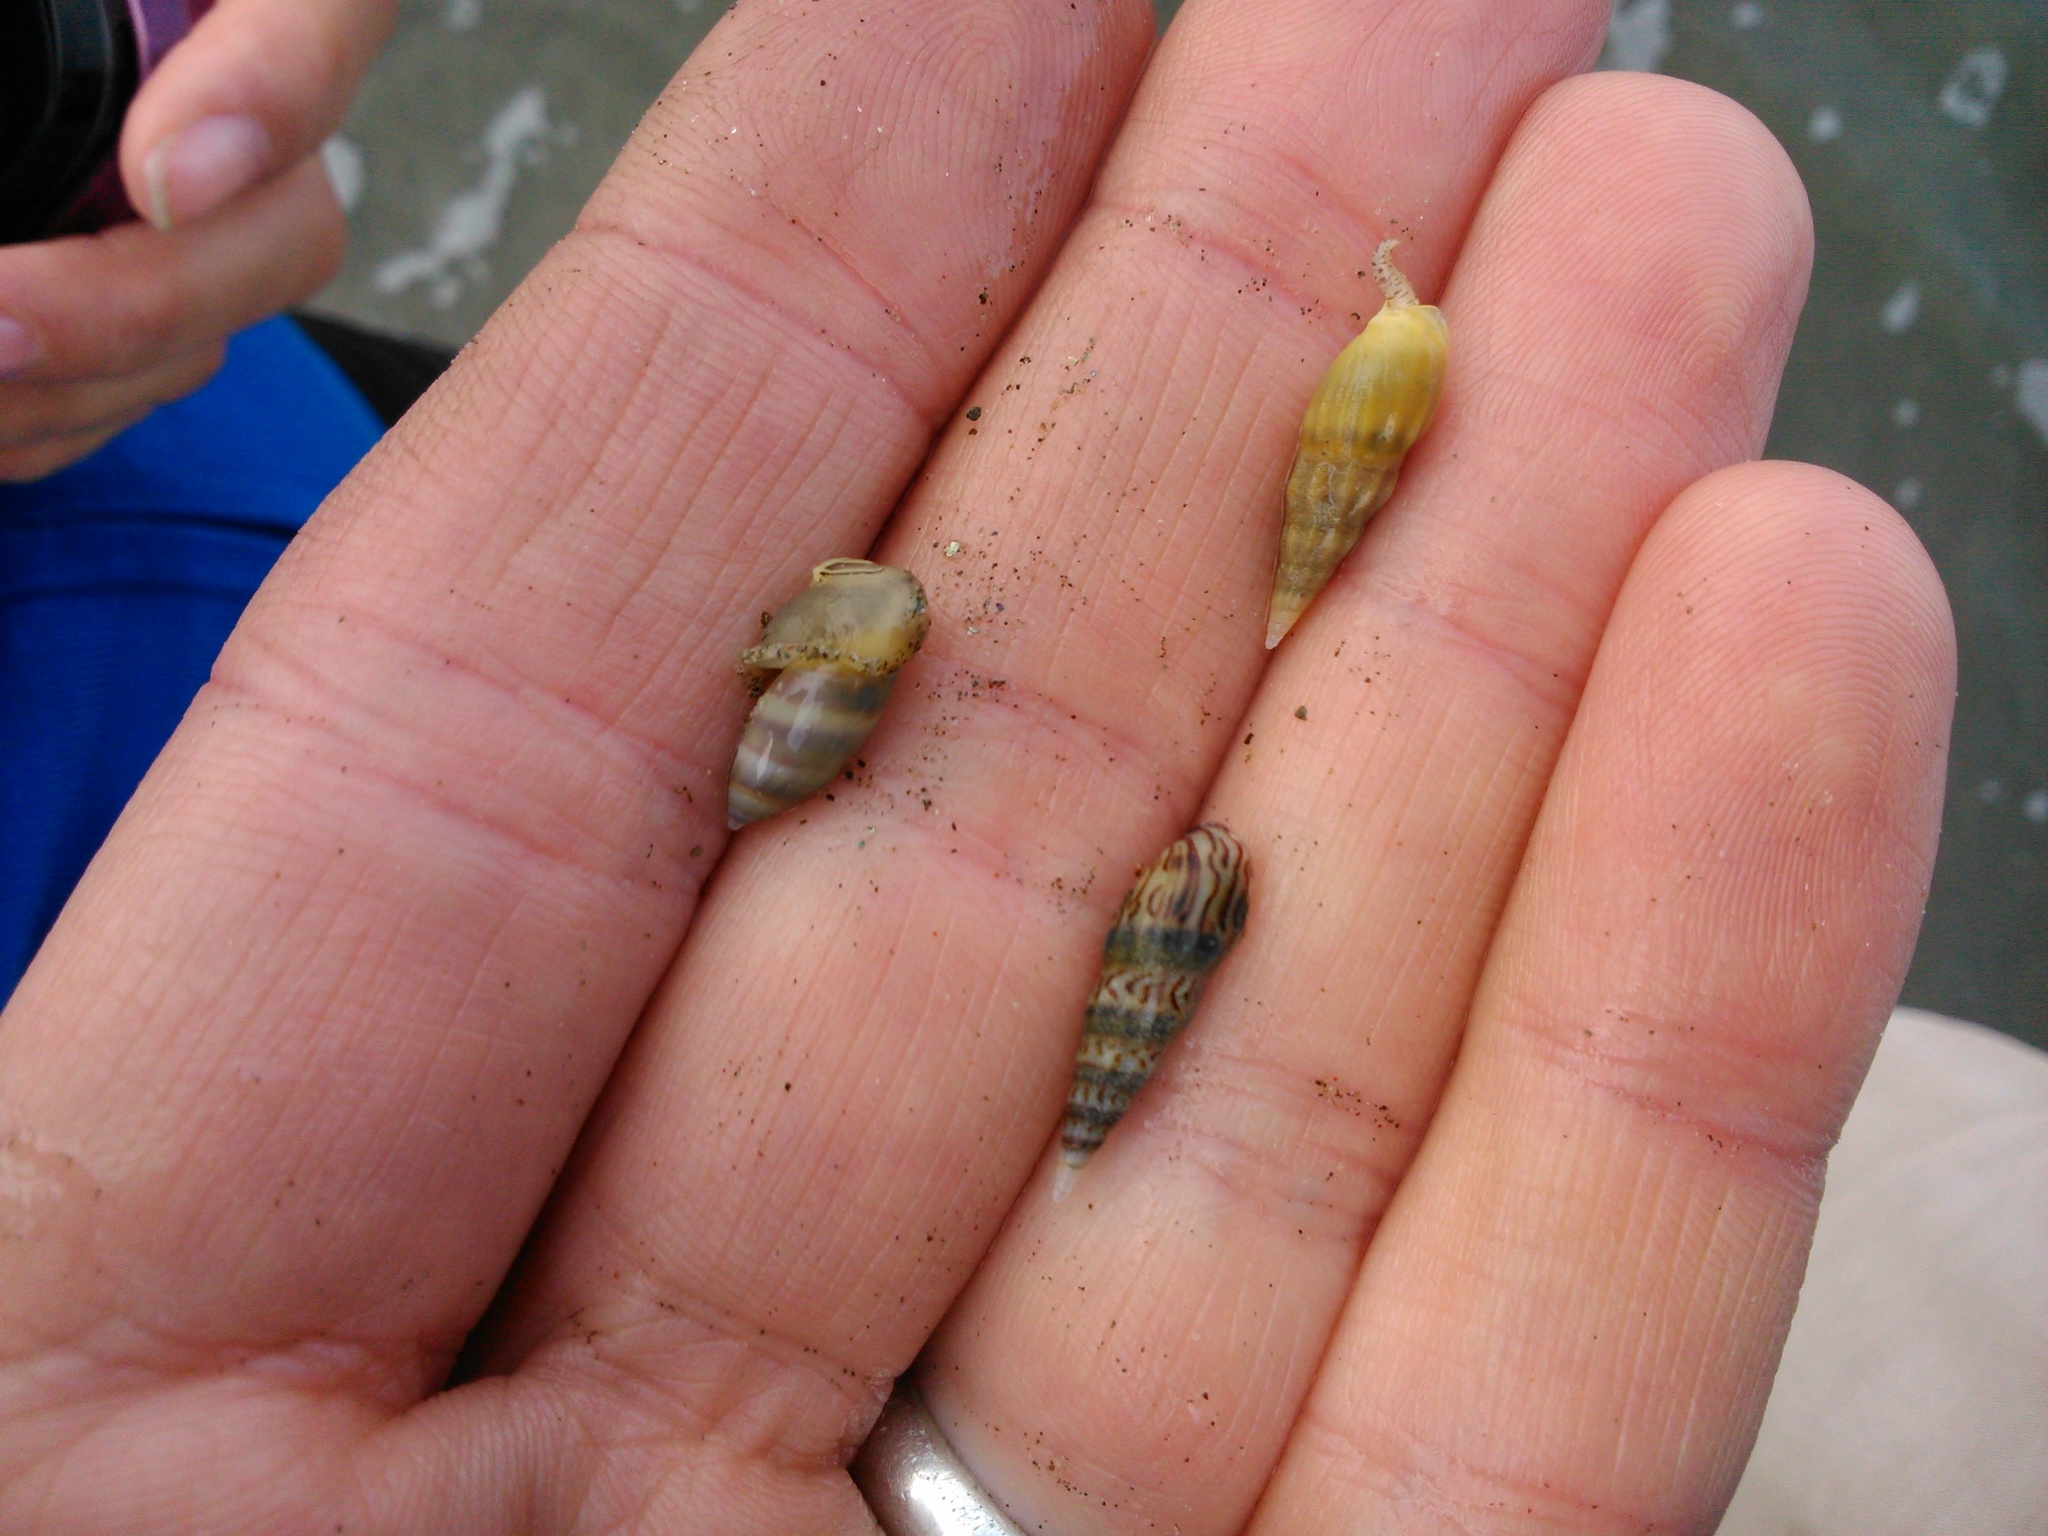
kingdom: Animalia
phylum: Mollusca
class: Gastropoda
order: Neogastropoda
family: Olividae
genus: Pachyoliva
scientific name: Pachyoliva semistriata
